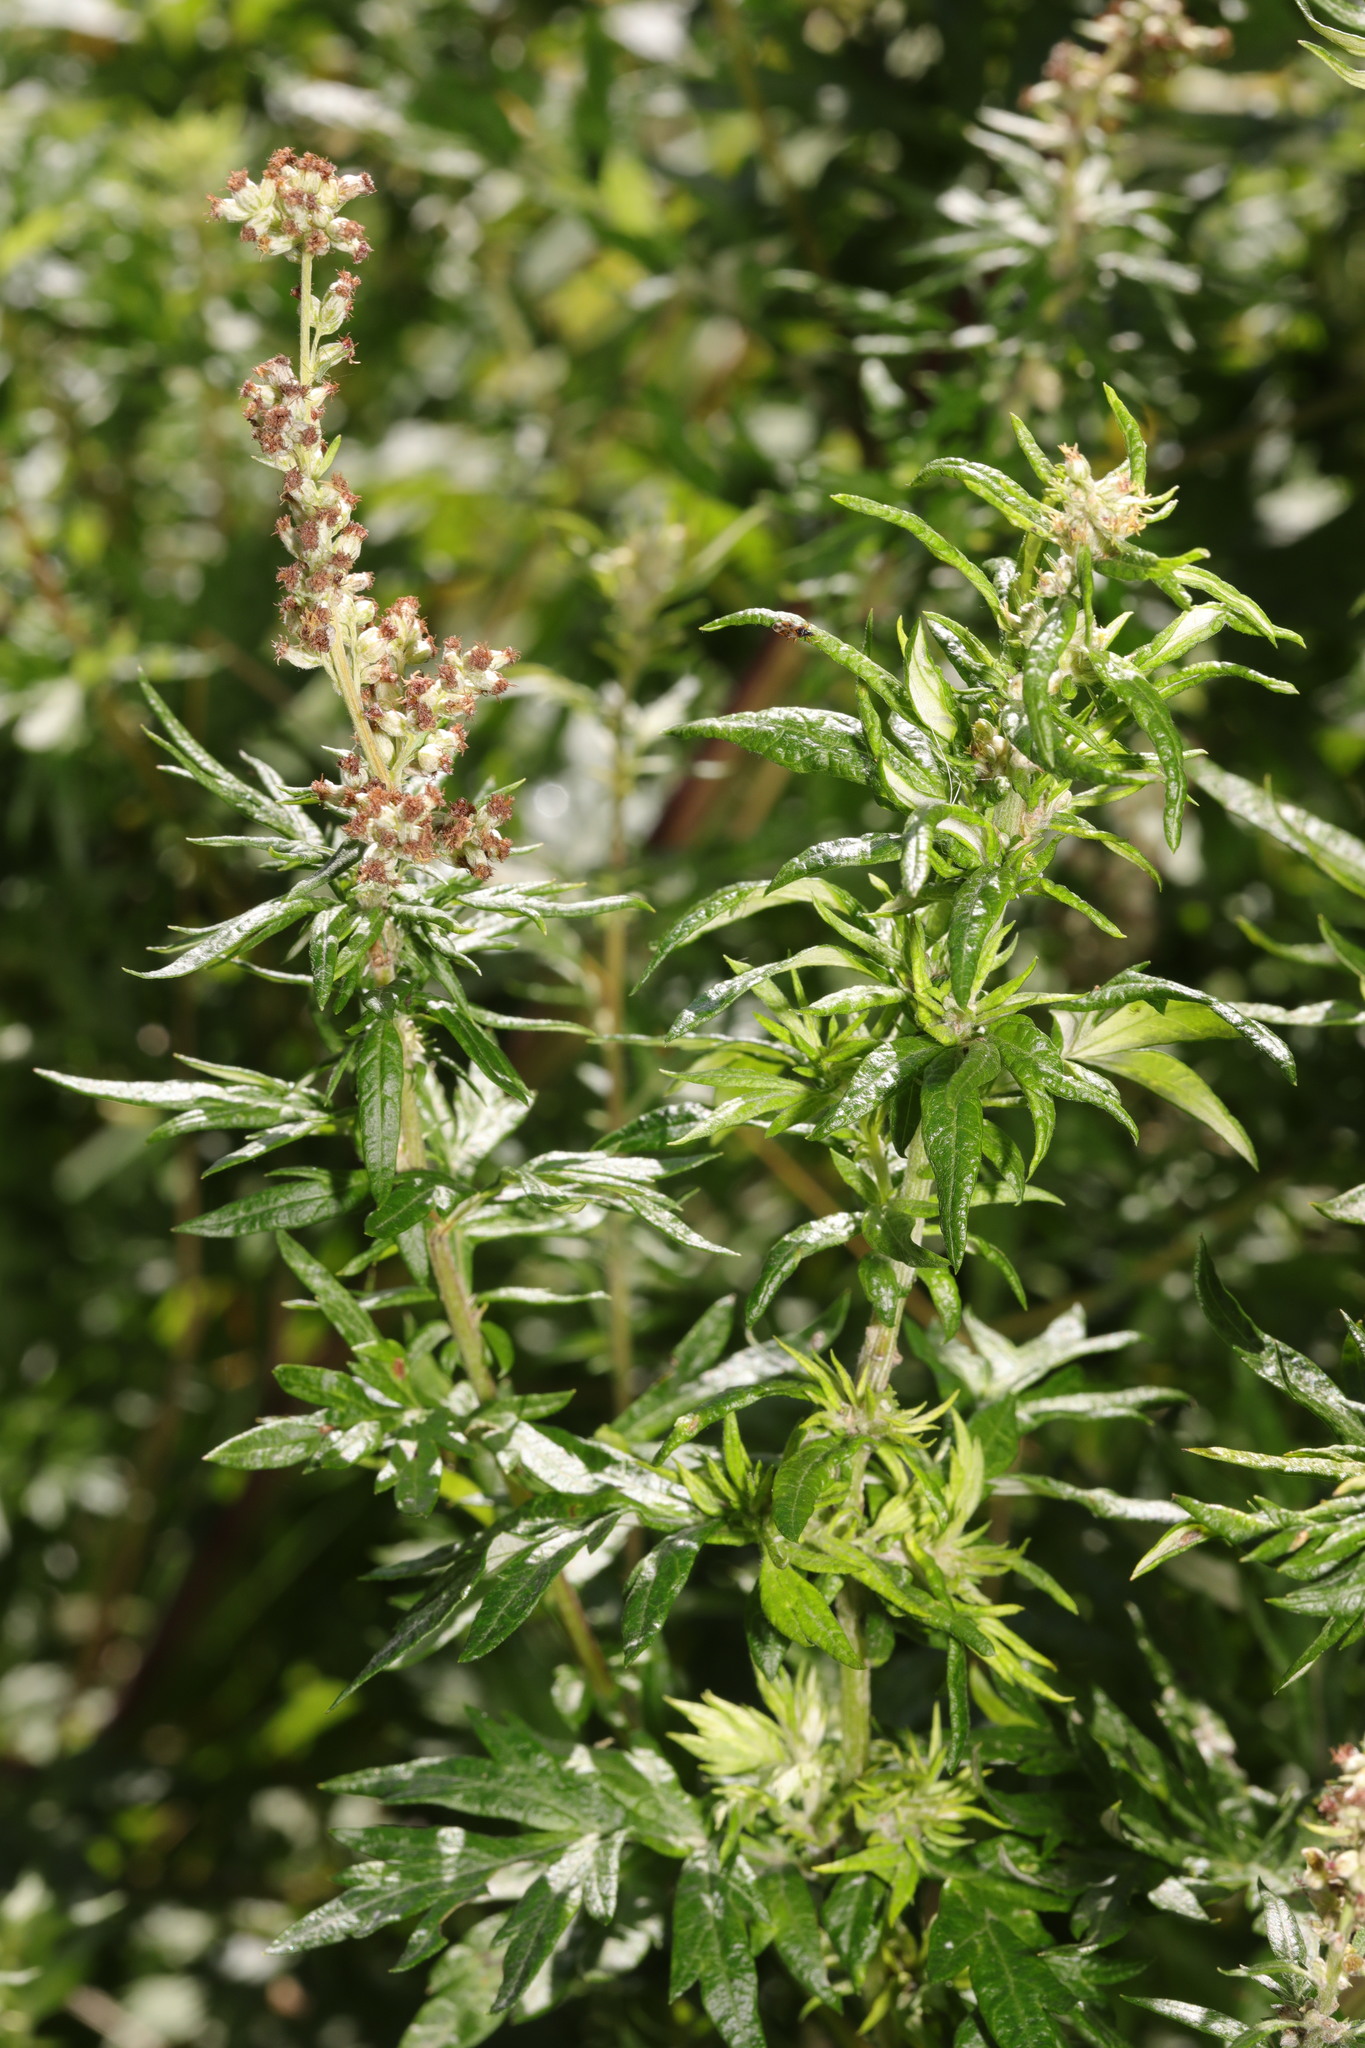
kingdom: Plantae
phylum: Tracheophyta
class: Magnoliopsida
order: Asterales
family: Asteraceae
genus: Artemisia
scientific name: Artemisia vulgaris
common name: Mugwort
